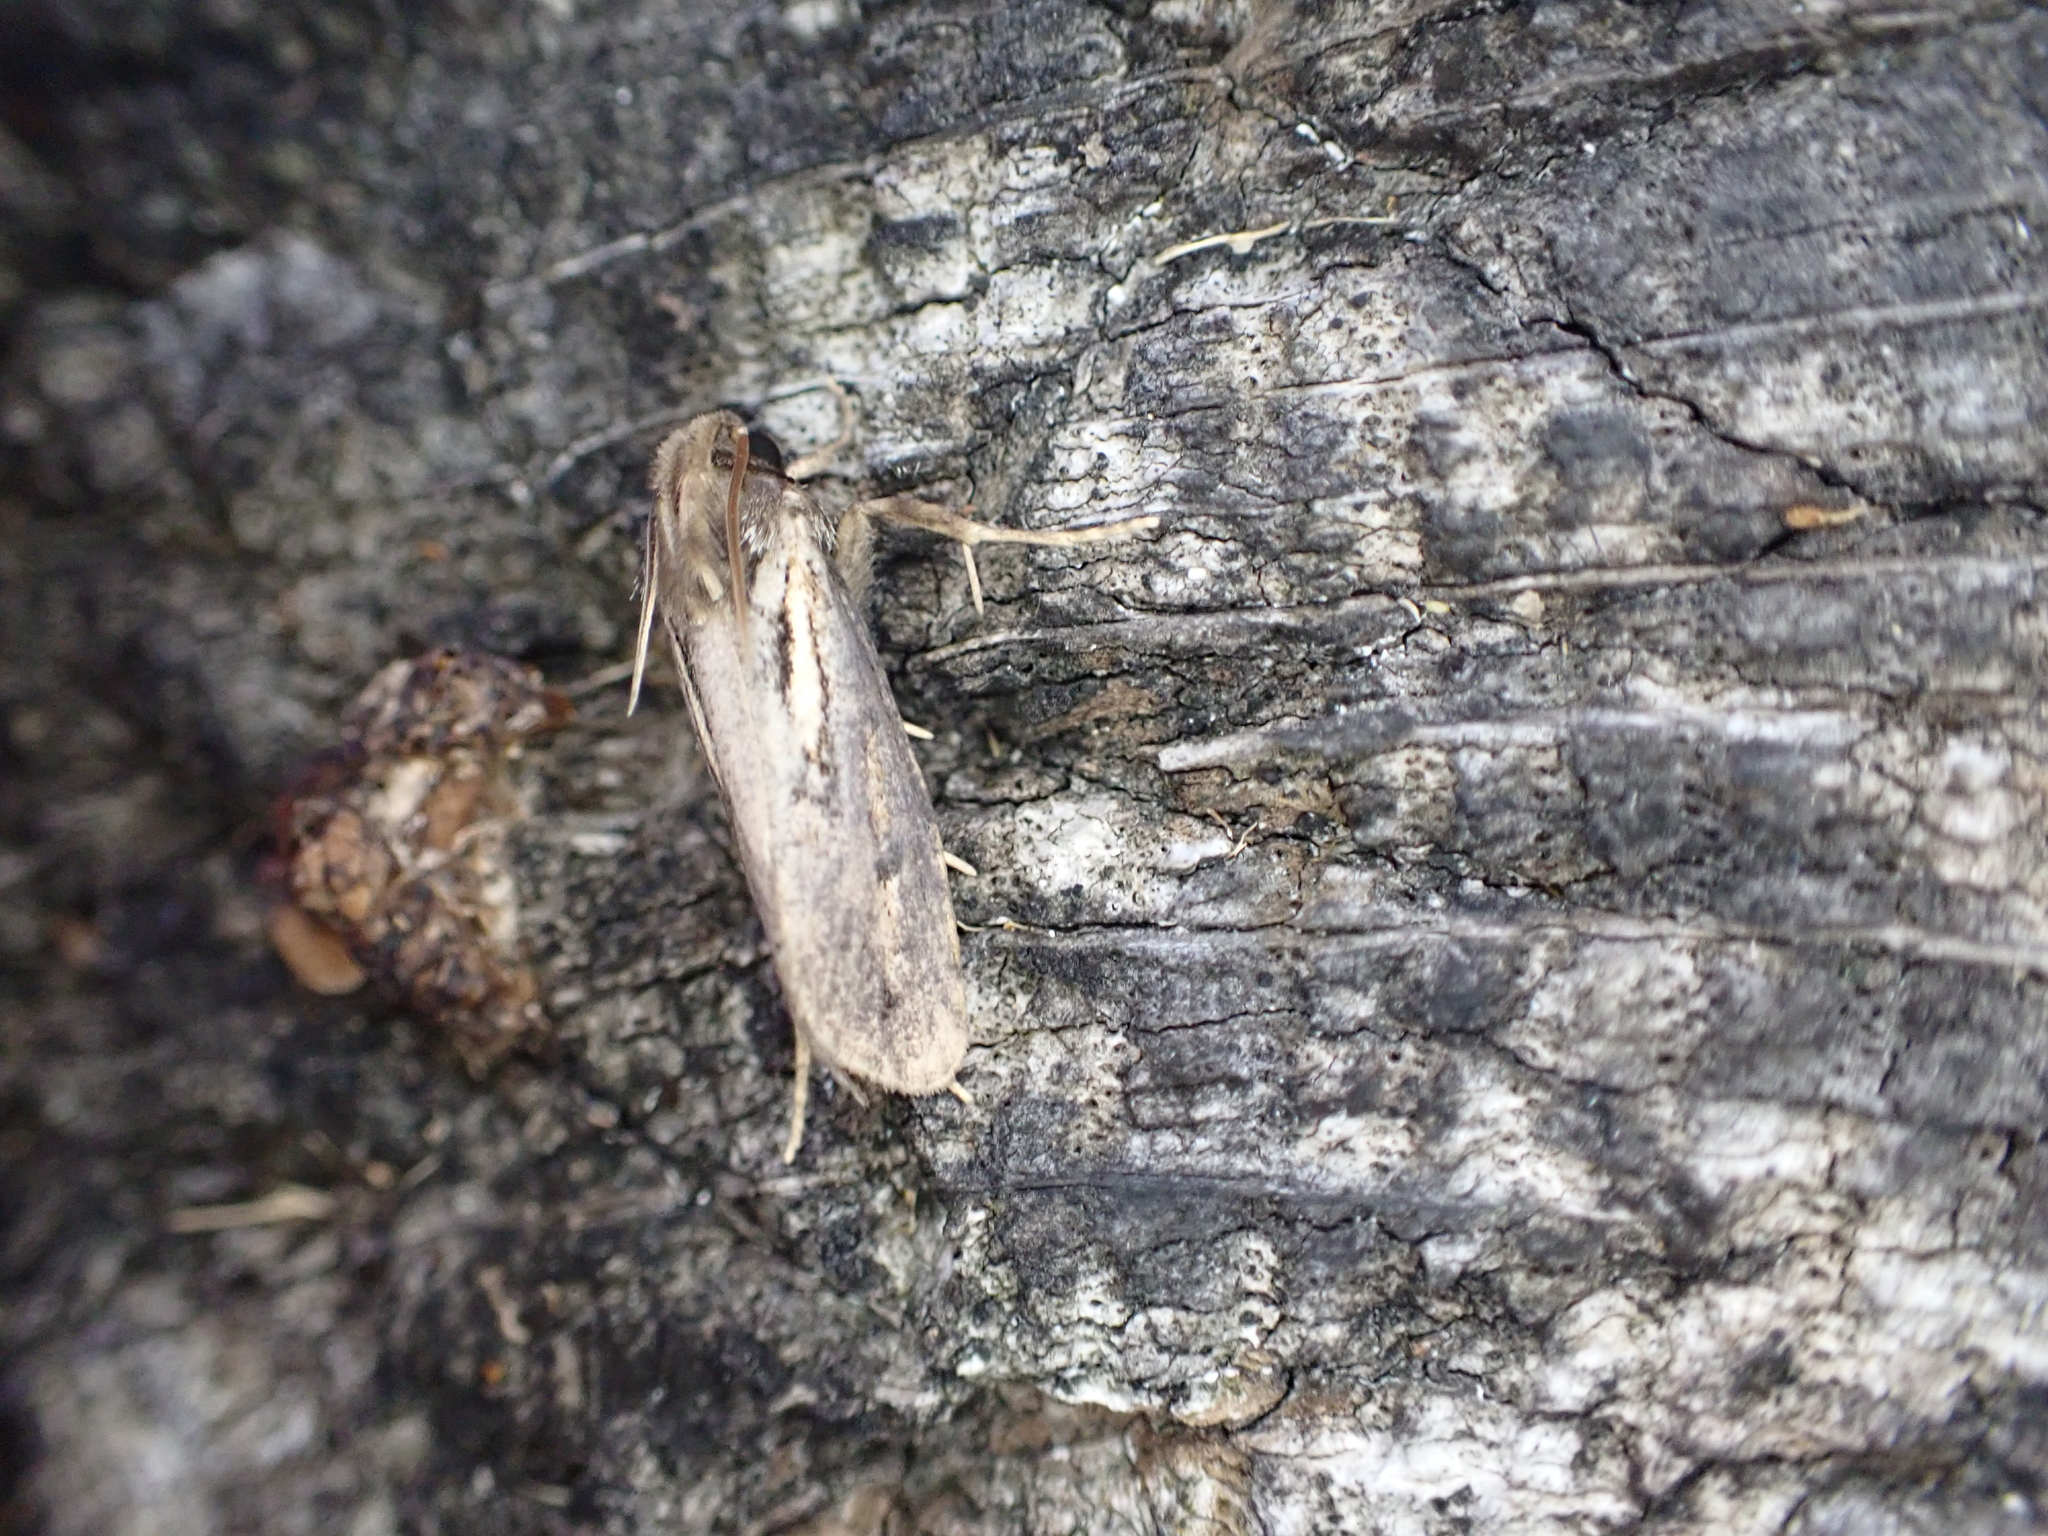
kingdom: Animalia
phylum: Arthropoda
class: Insecta
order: Lepidoptera
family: Tineidae
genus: Acrolophus
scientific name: Acrolophus popeanella
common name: Clemens' grass tubeworm moth
